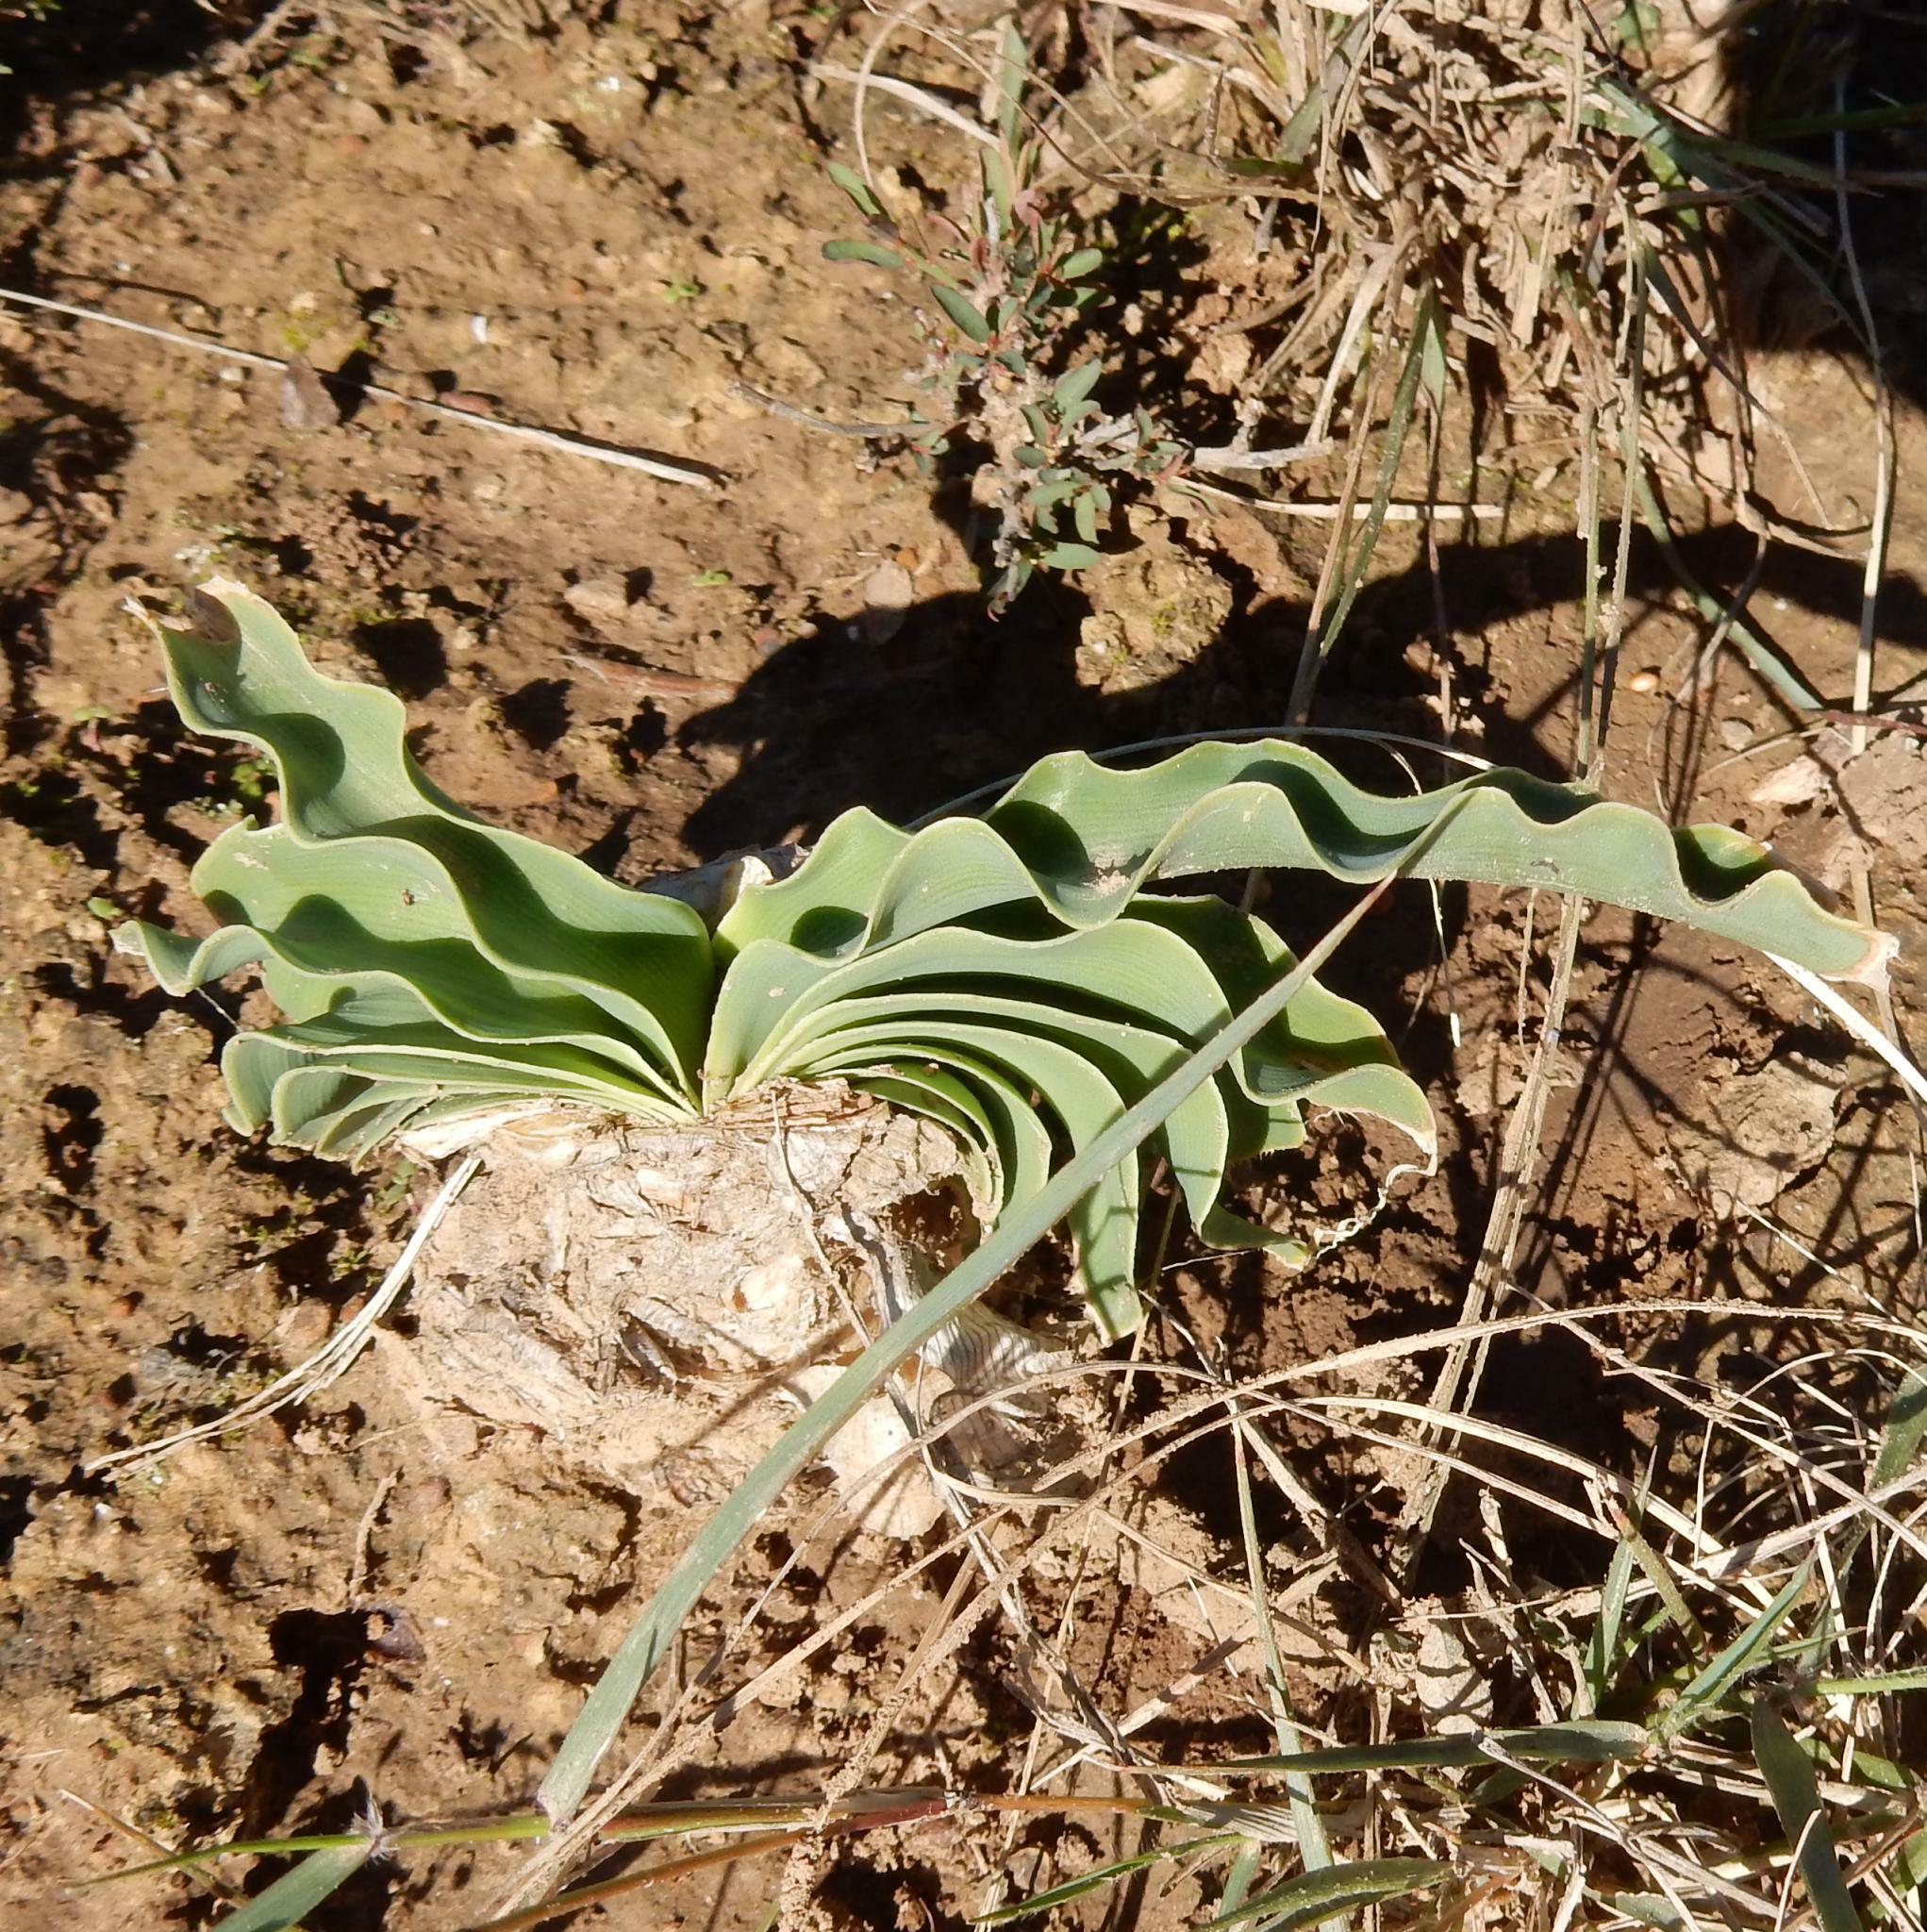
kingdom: Plantae
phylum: Tracheophyta
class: Liliopsida
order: Asparagales
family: Amaryllidaceae
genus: Boophone
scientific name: Boophone disticha
